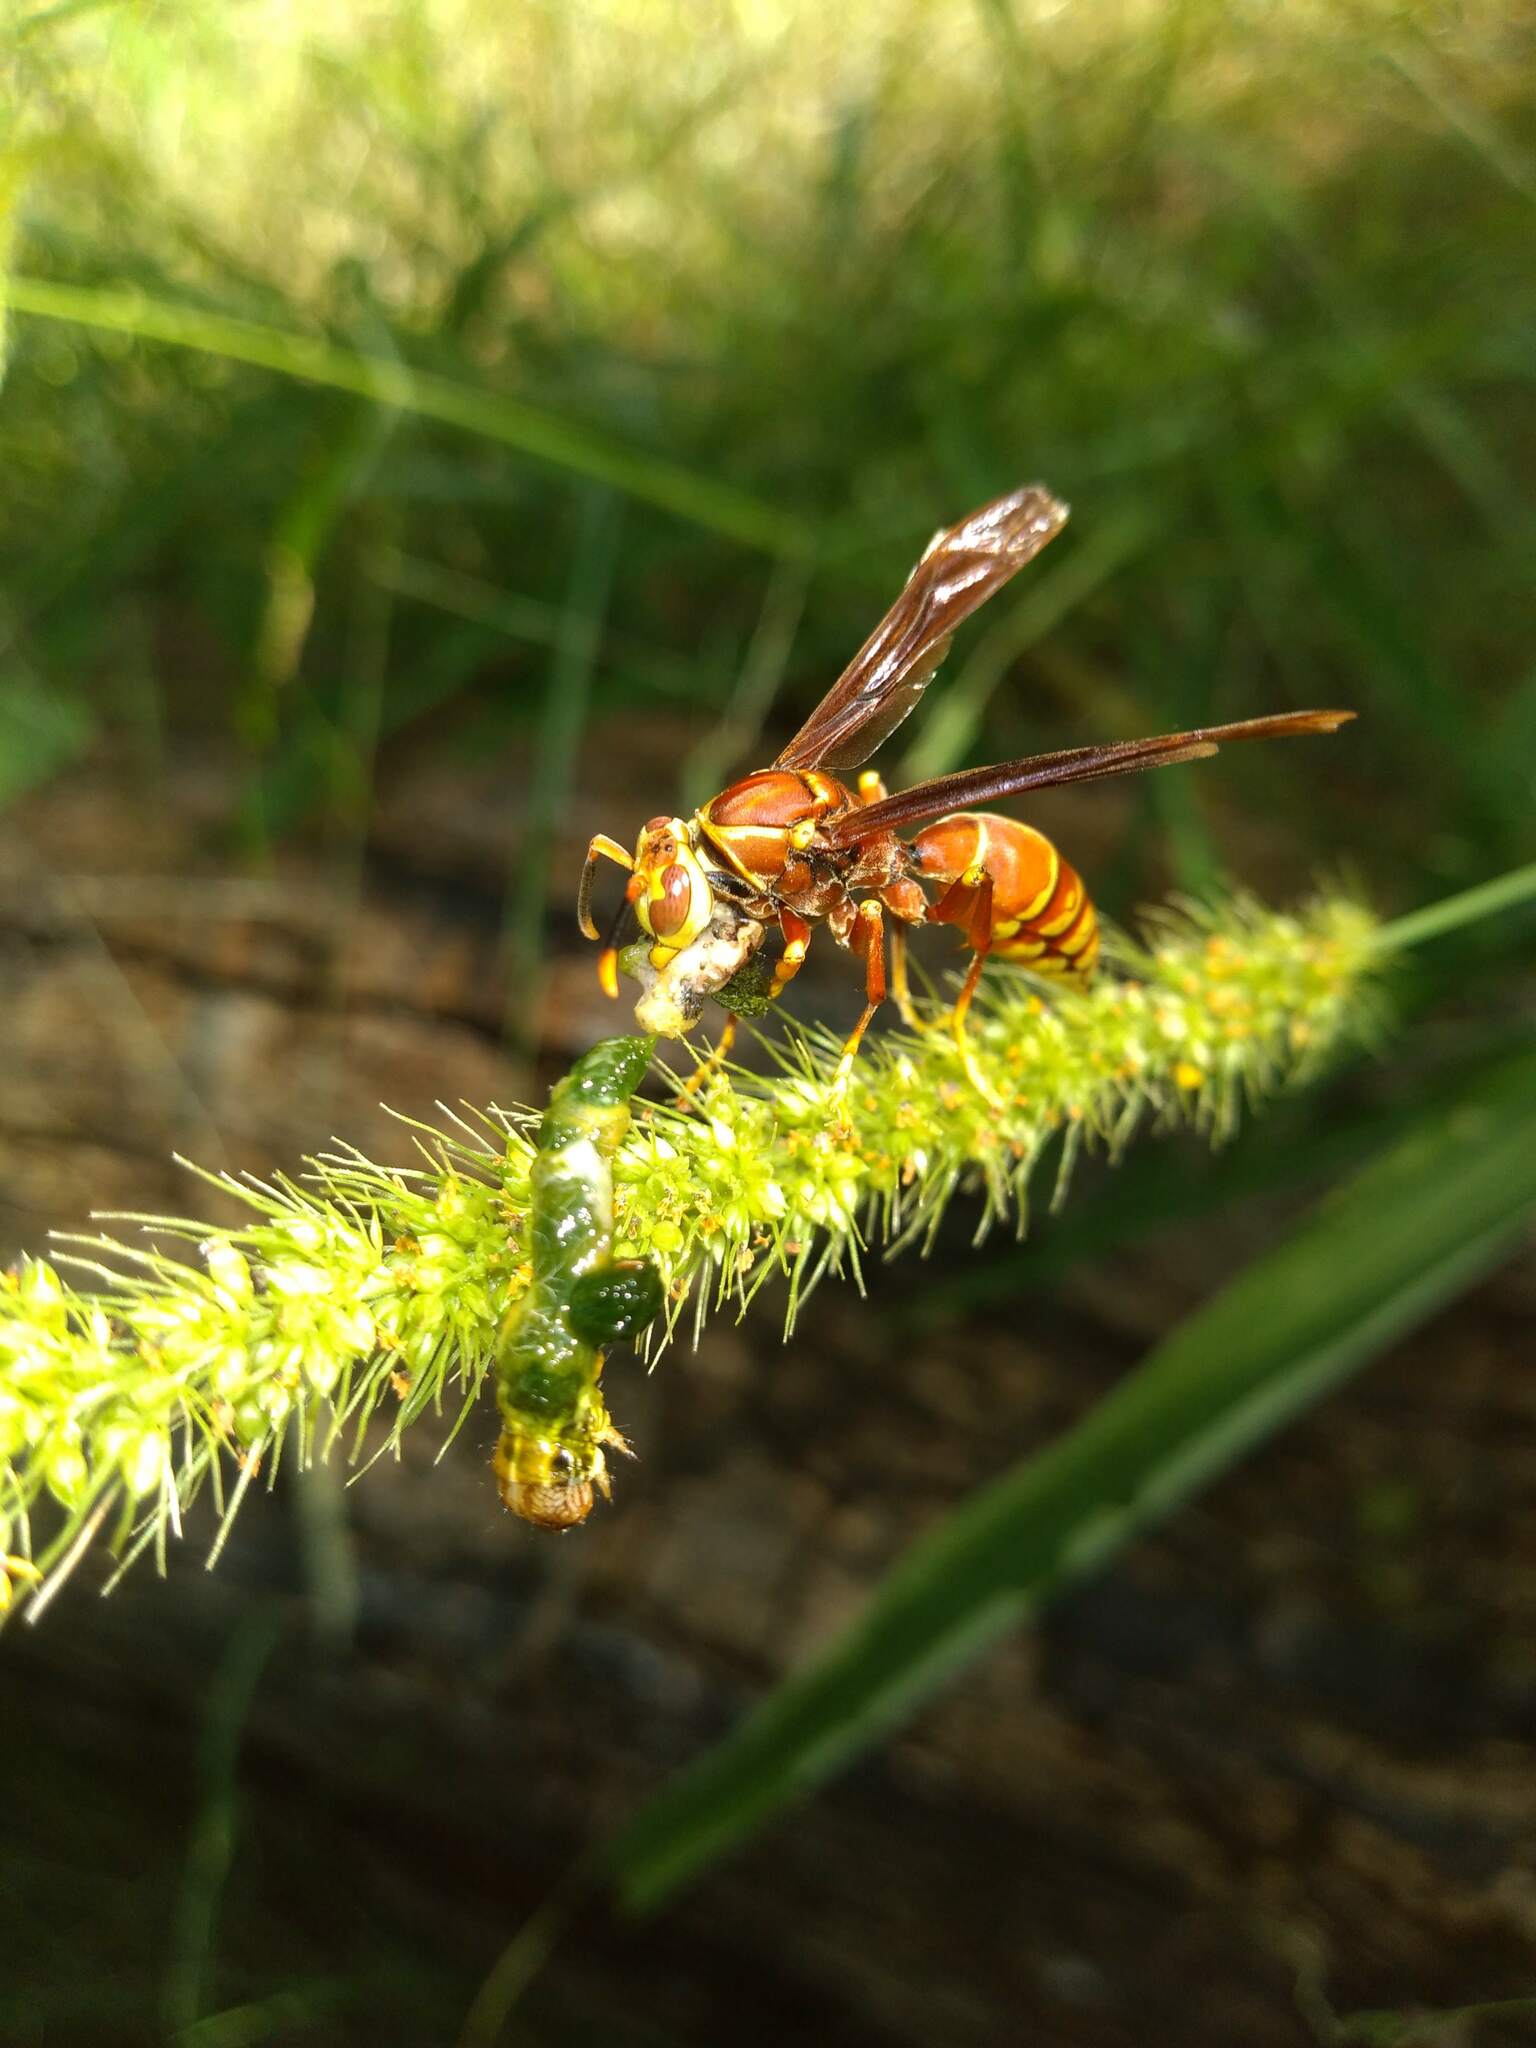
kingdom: Animalia
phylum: Arthropoda
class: Insecta
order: Hymenoptera
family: Eumenidae
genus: Polistes
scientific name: Polistes cavapyta
